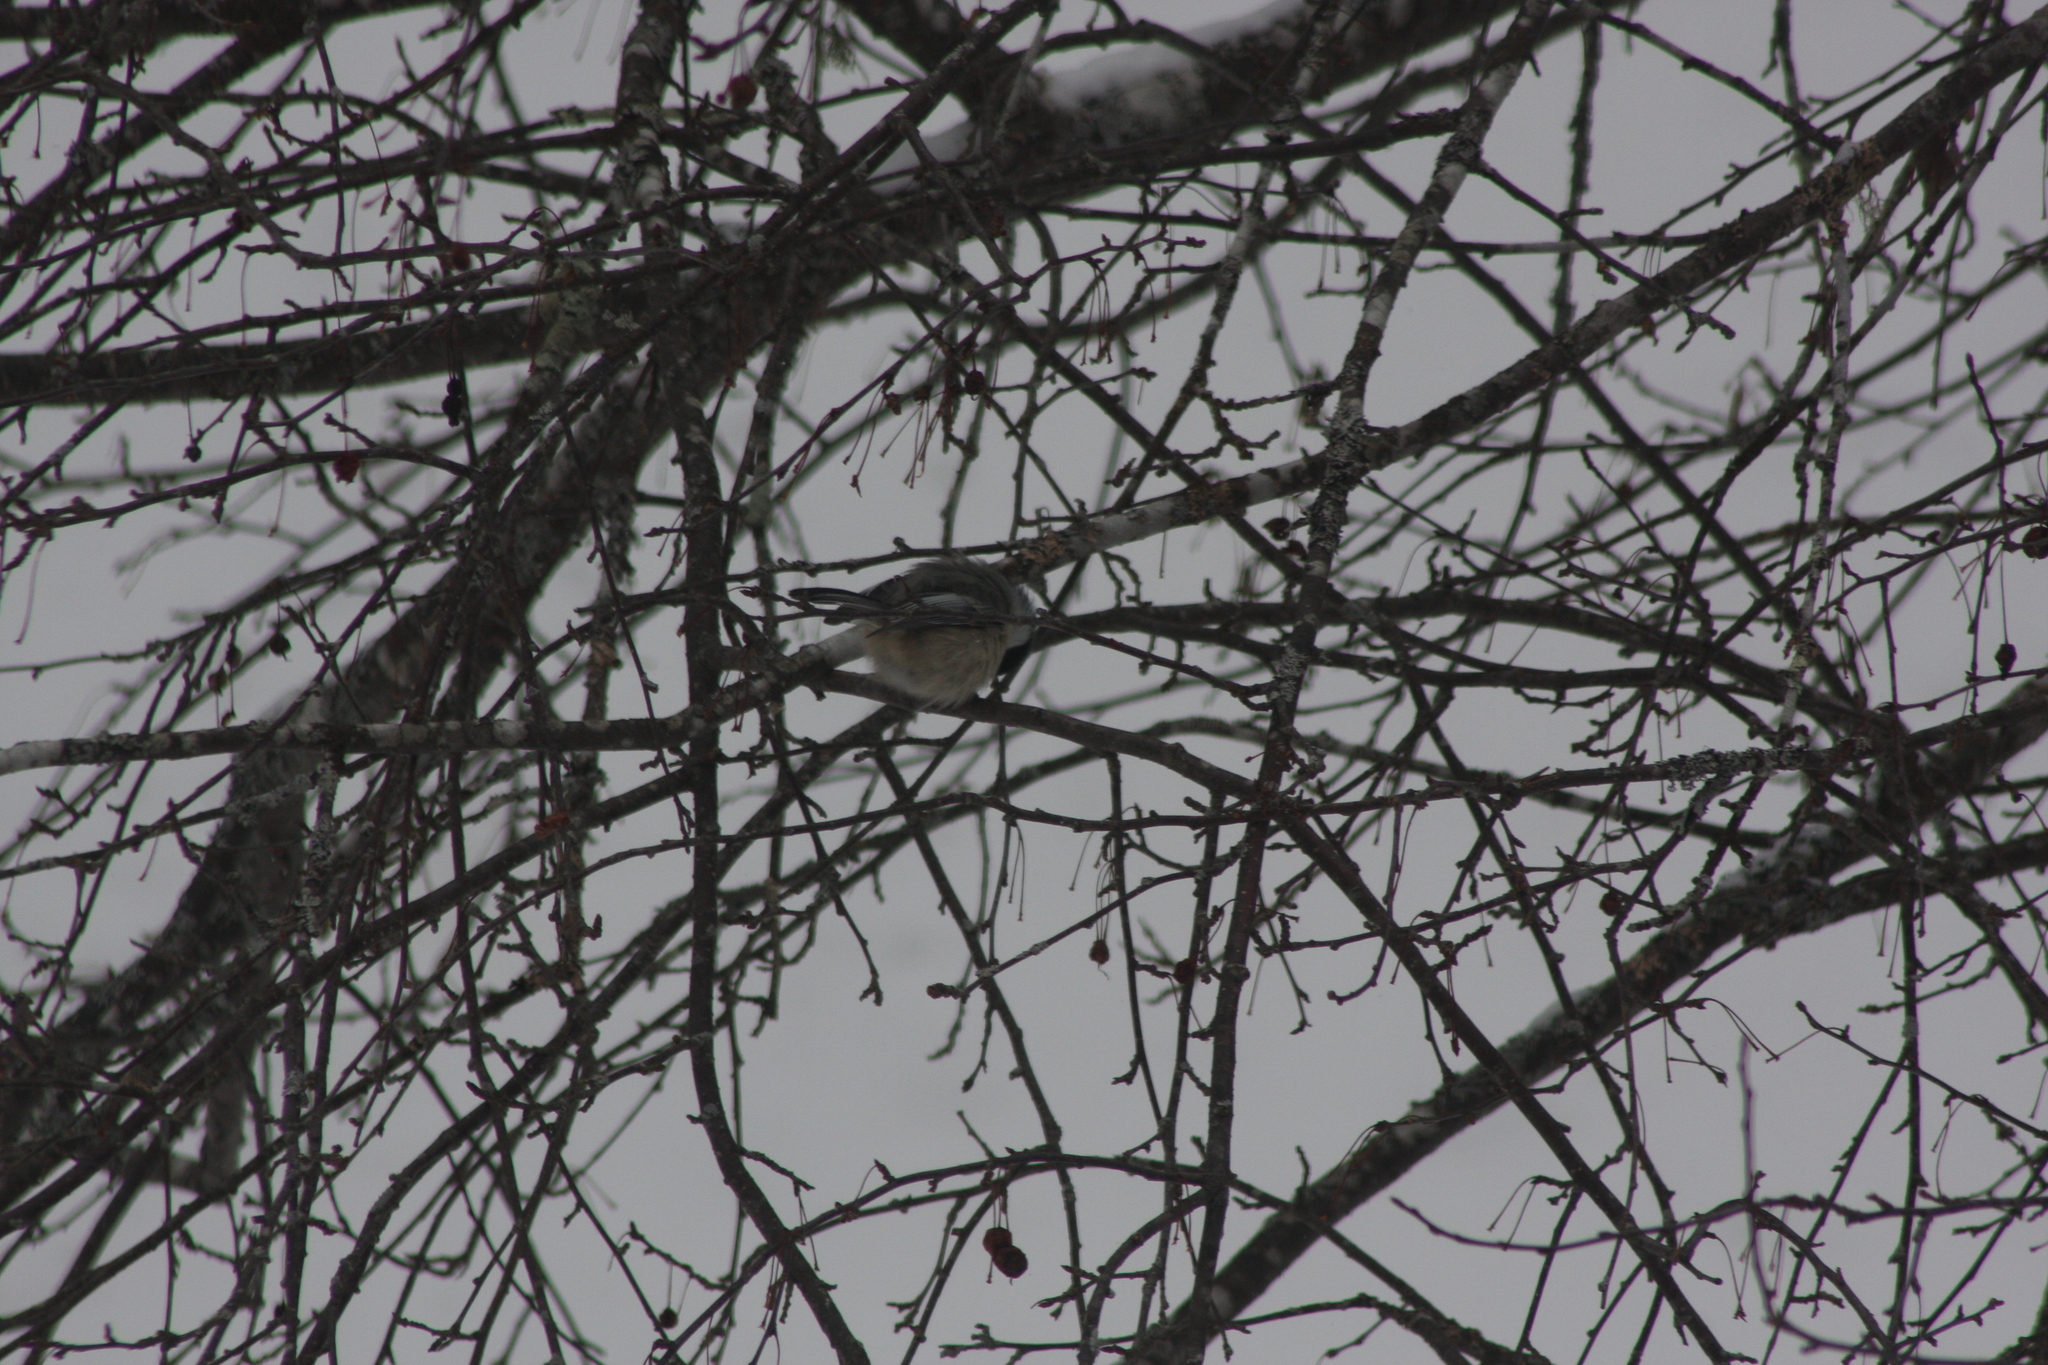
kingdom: Animalia
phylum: Chordata
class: Aves
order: Passeriformes
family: Paridae
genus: Poecile
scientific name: Poecile atricapillus
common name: Black-capped chickadee
